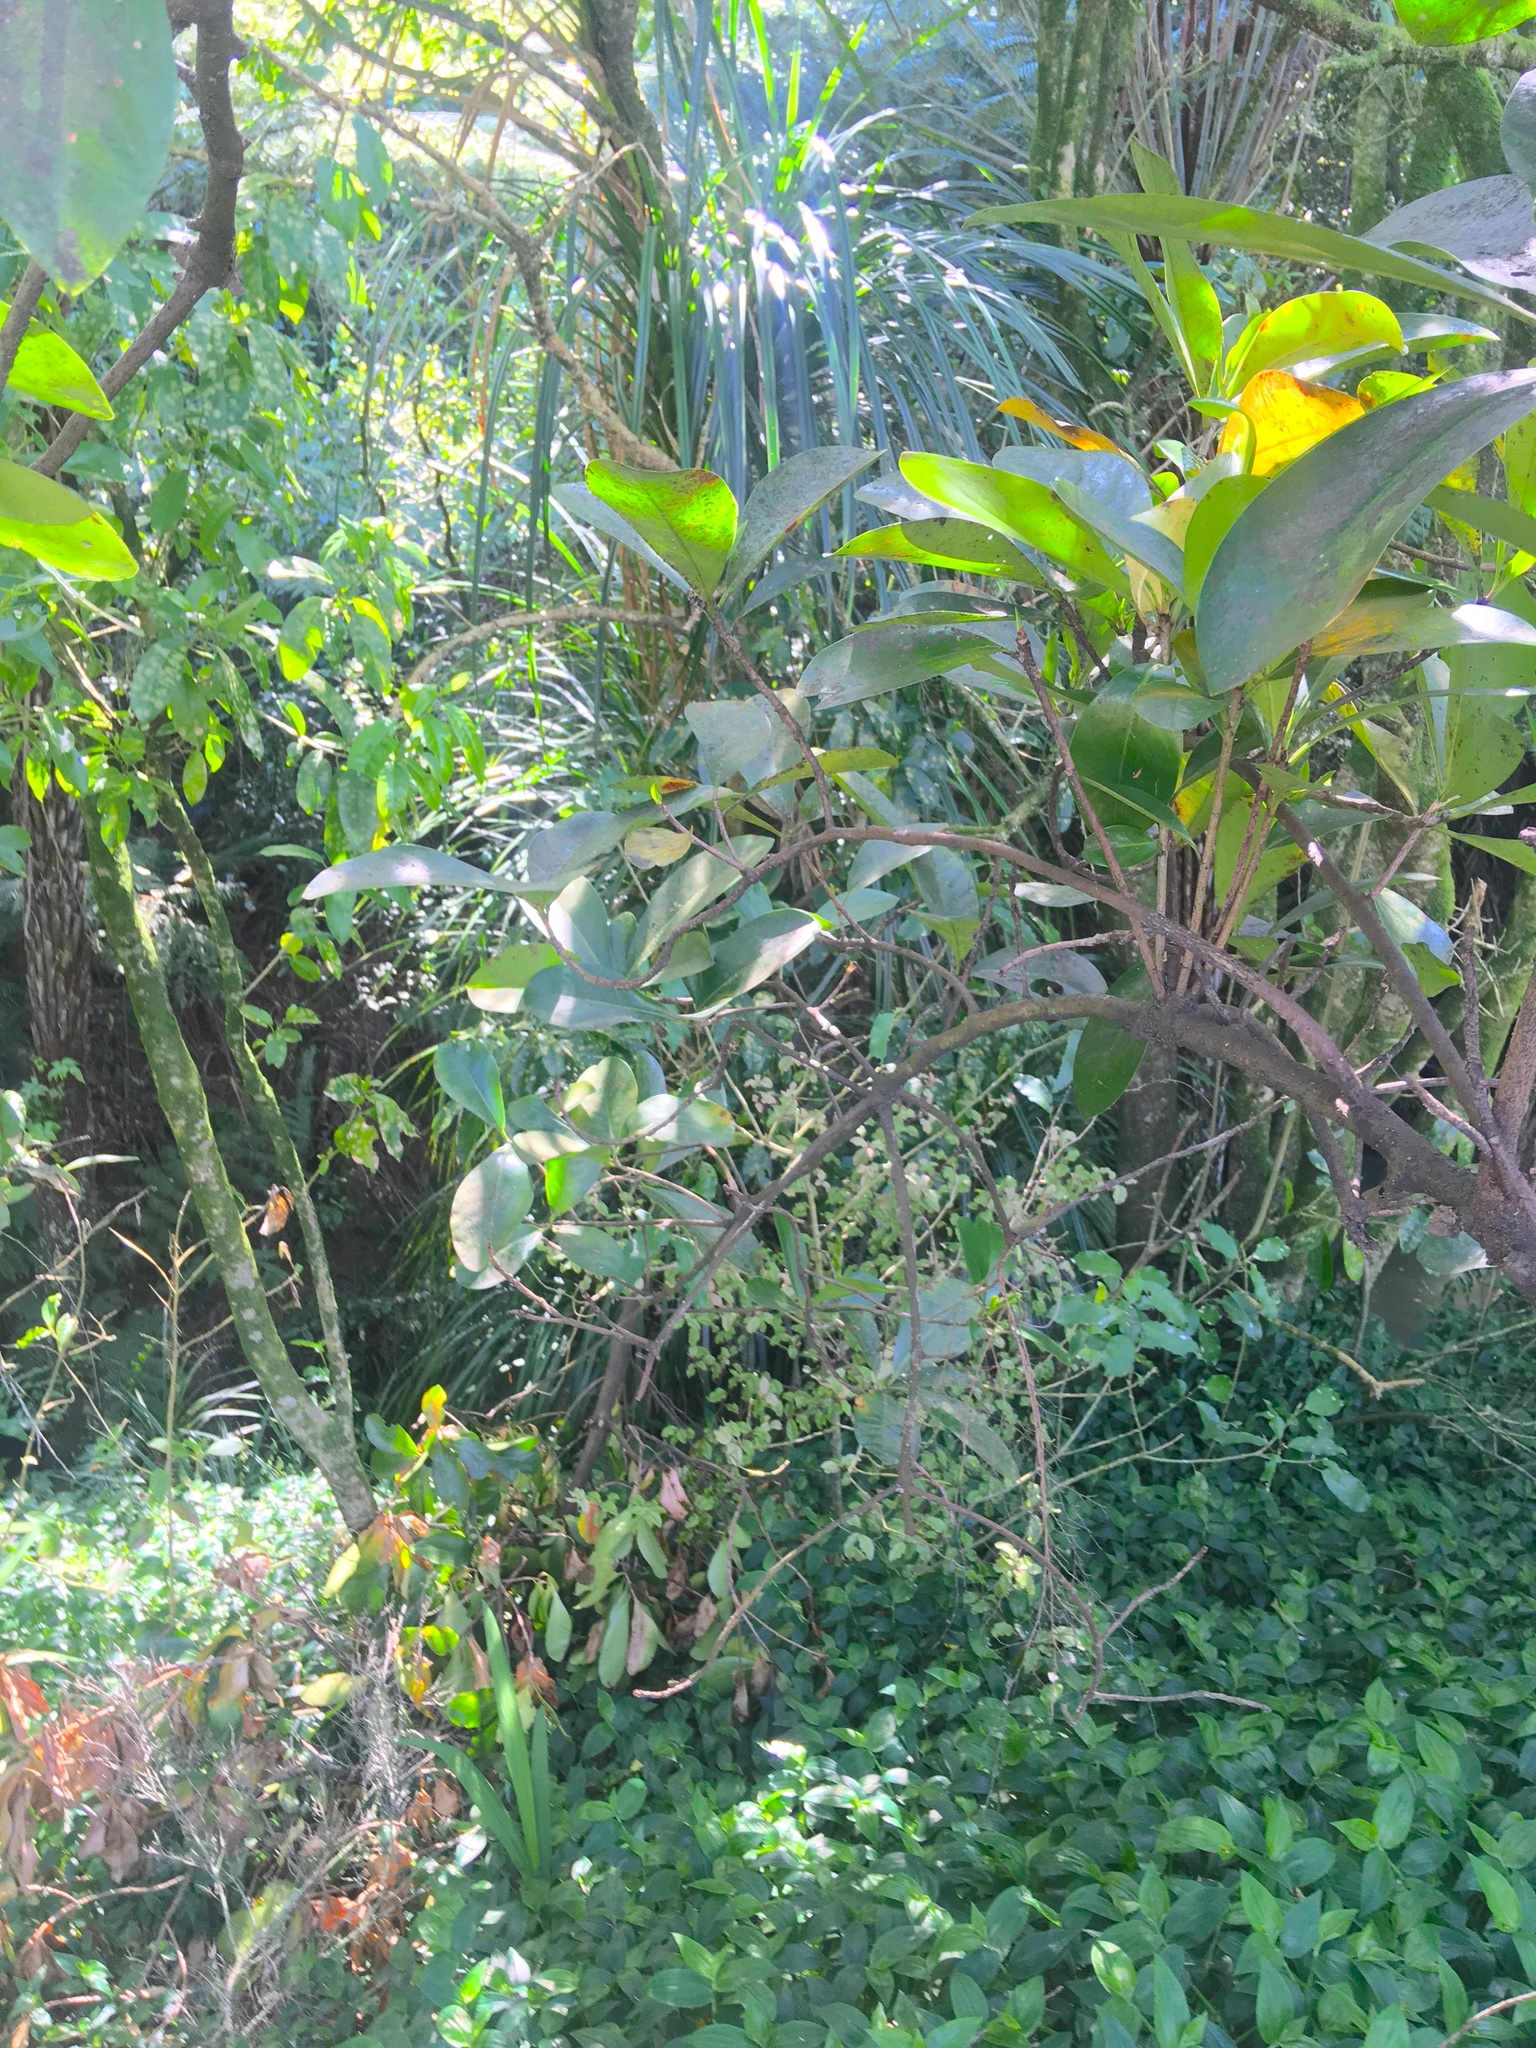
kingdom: Plantae
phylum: Tracheophyta
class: Liliopsida
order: Commelinales
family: Commelinaceae
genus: Tradescantia
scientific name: Tradescantia fluminensis
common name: Wandering-jew
